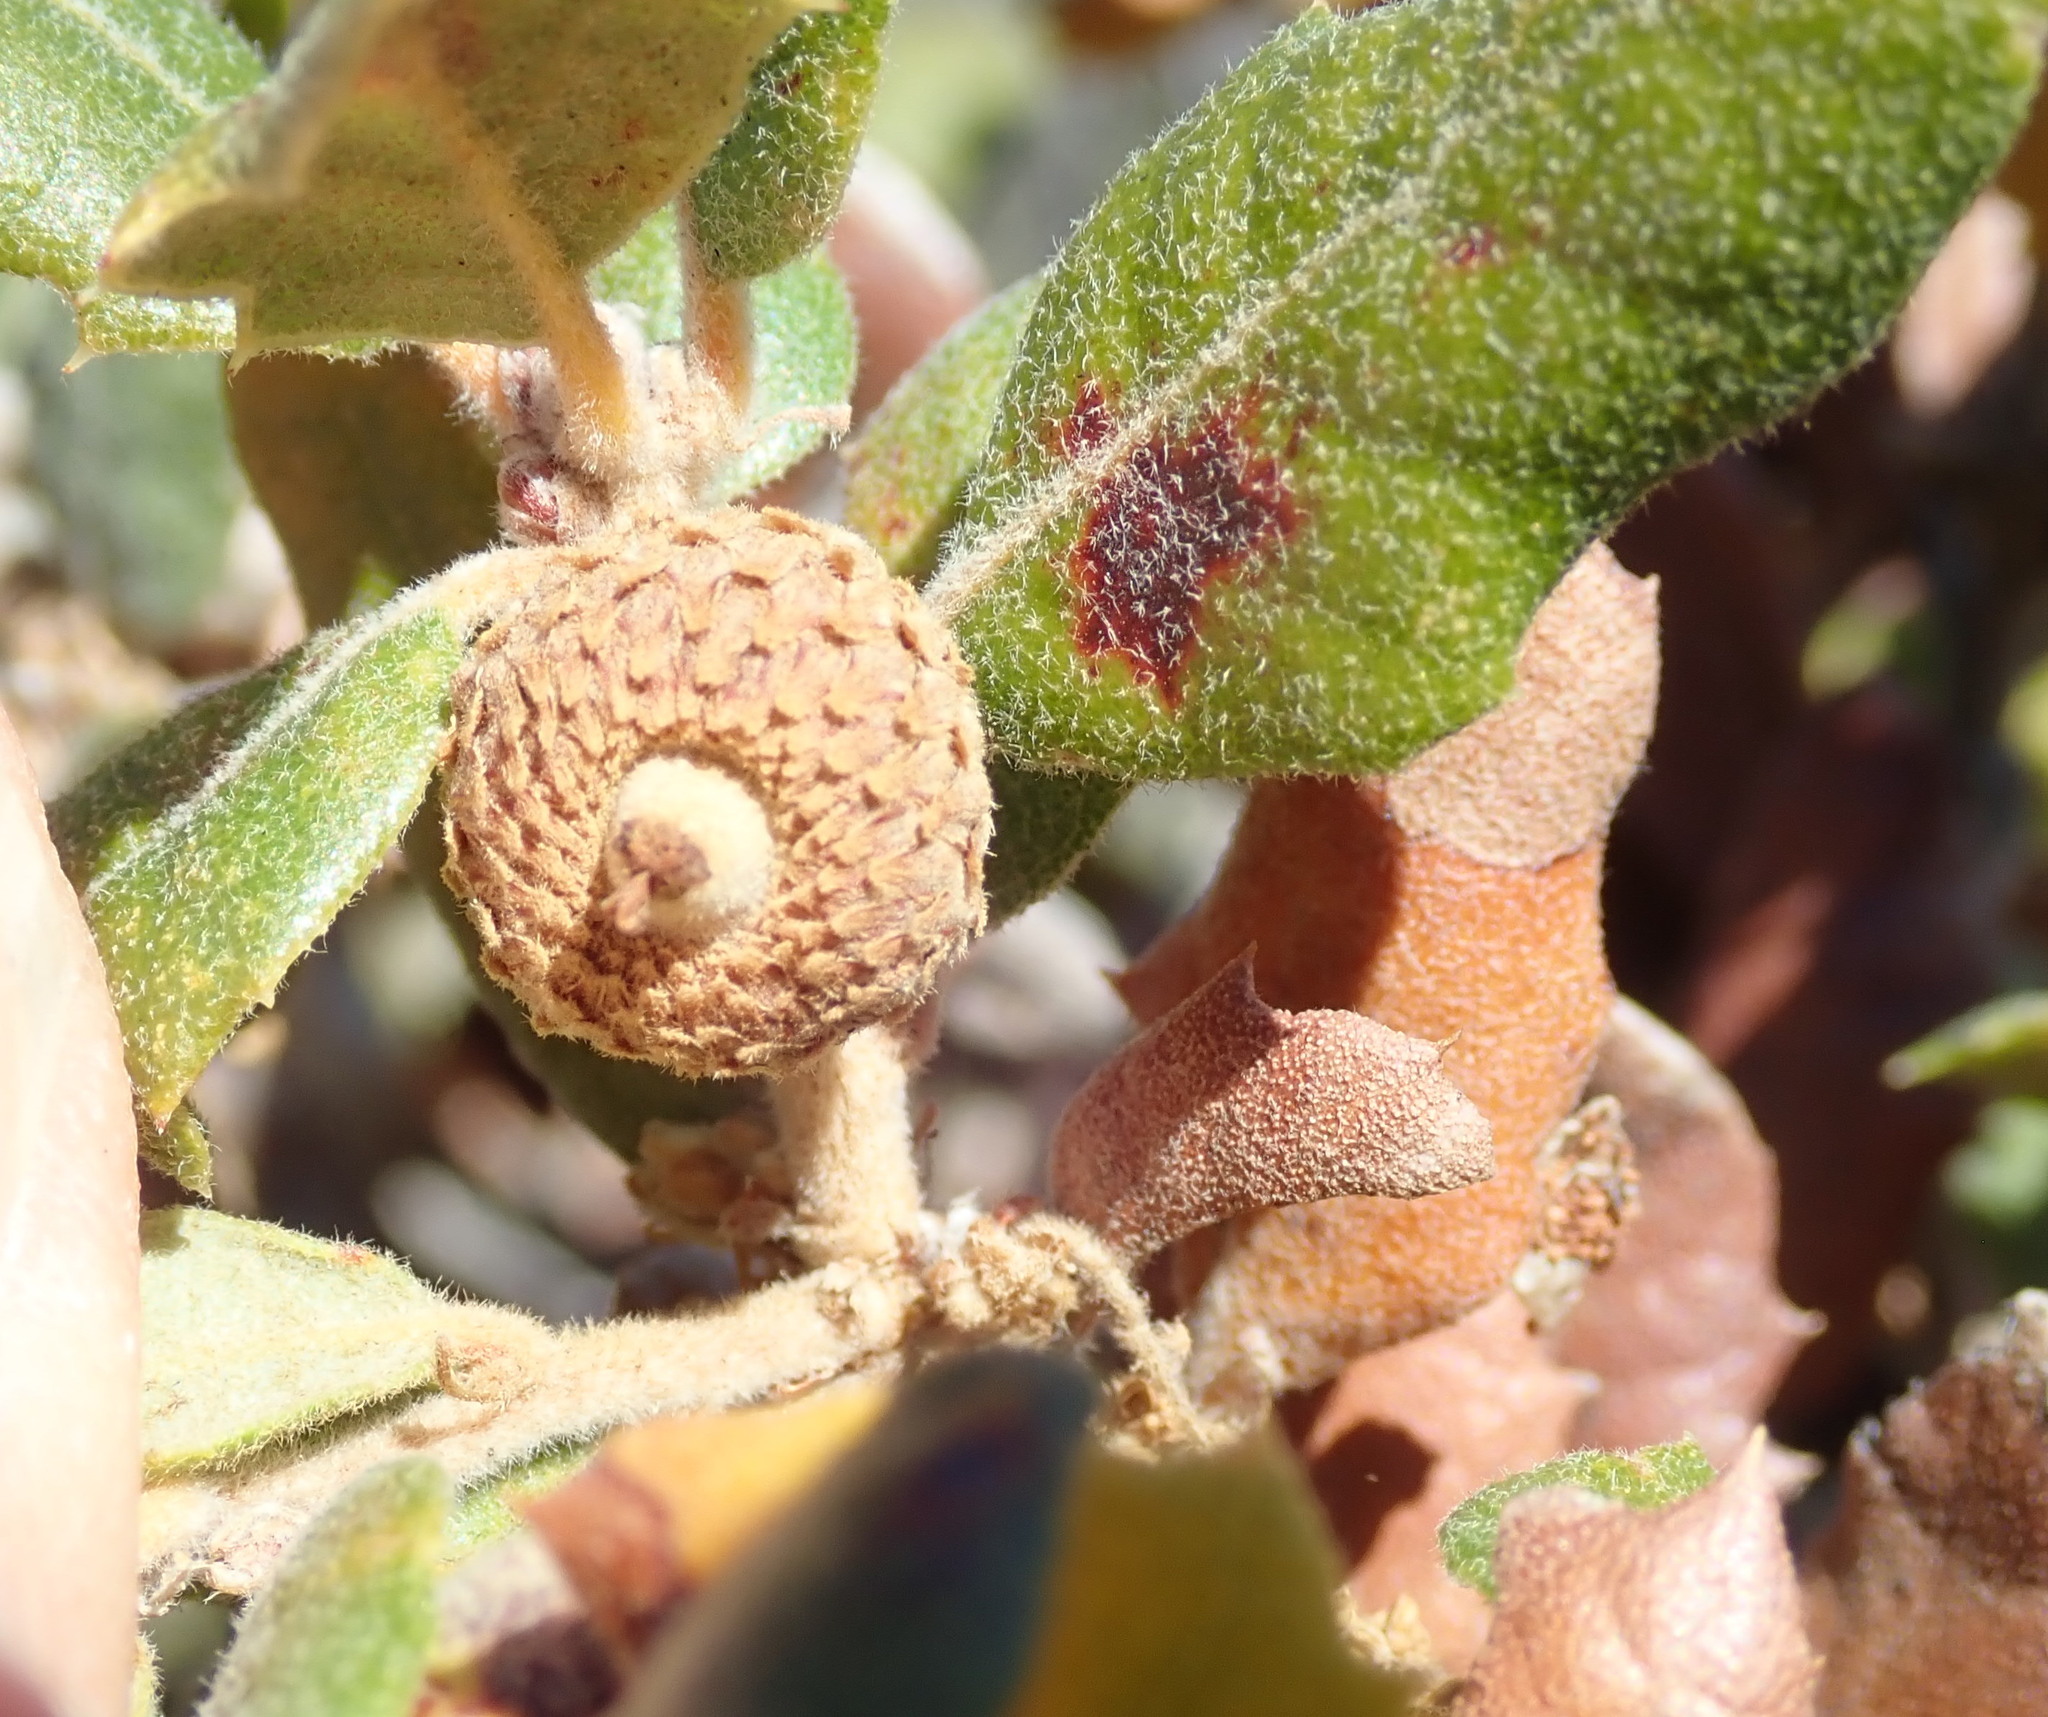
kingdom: Plantae
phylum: Tracheophyta
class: Magnoliopsida
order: Fagales
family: Fagaceae
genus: Quercus
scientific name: Quercus durata
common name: Leather oak
